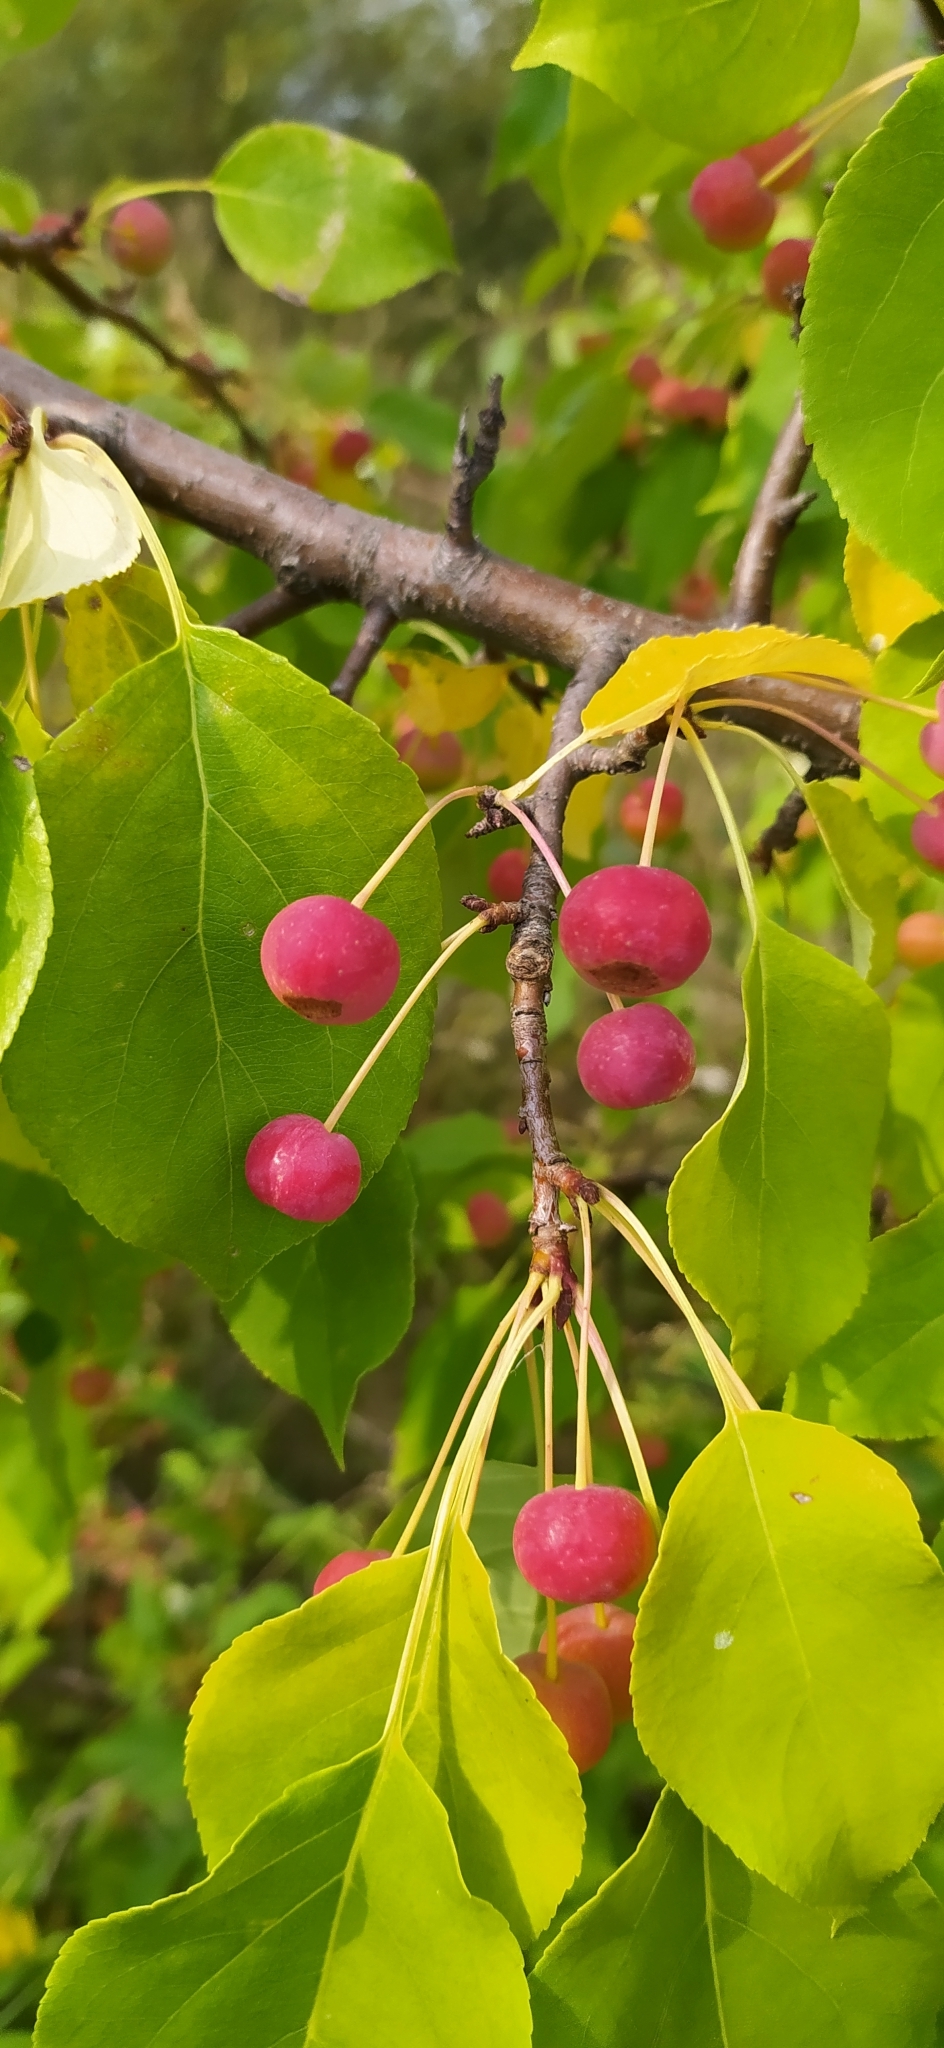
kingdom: Plantae
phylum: Tracheophyta
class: Magnoliopsida
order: Rosales
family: Rosaceae
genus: Malus
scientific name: Malus baccata
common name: Siberian crab
